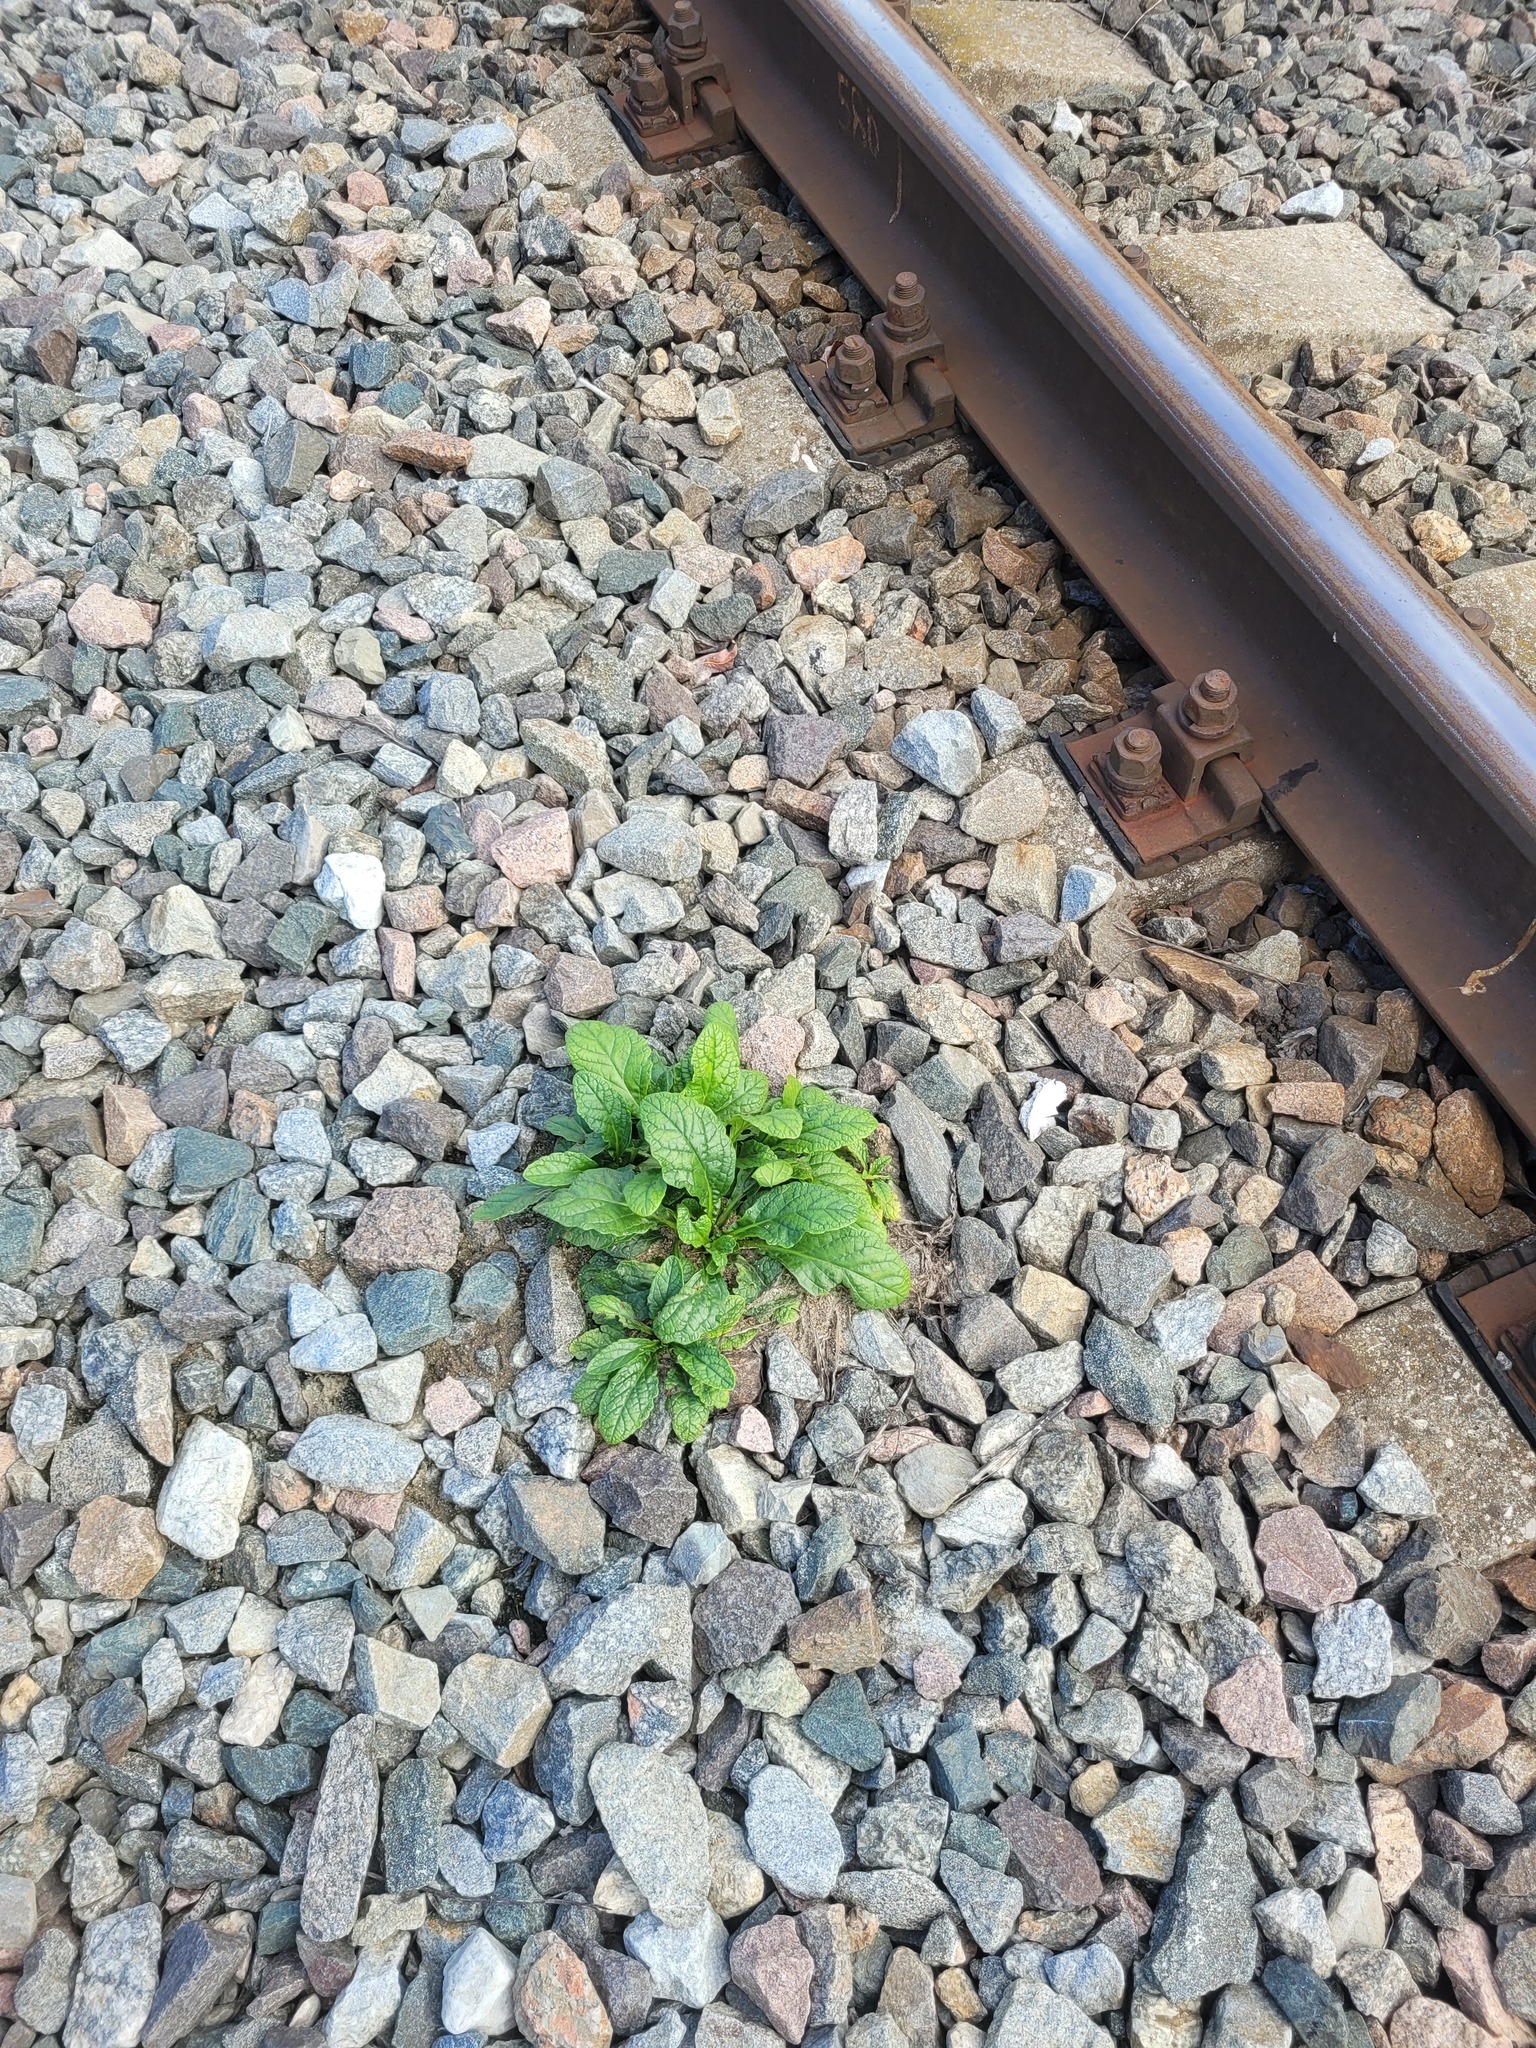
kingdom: Plantae
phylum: Tracheophyta
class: Magnoliopsida
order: Lamiales
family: Lamiaceae
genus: Ajuga
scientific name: Ajuga reptans
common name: Bugle
